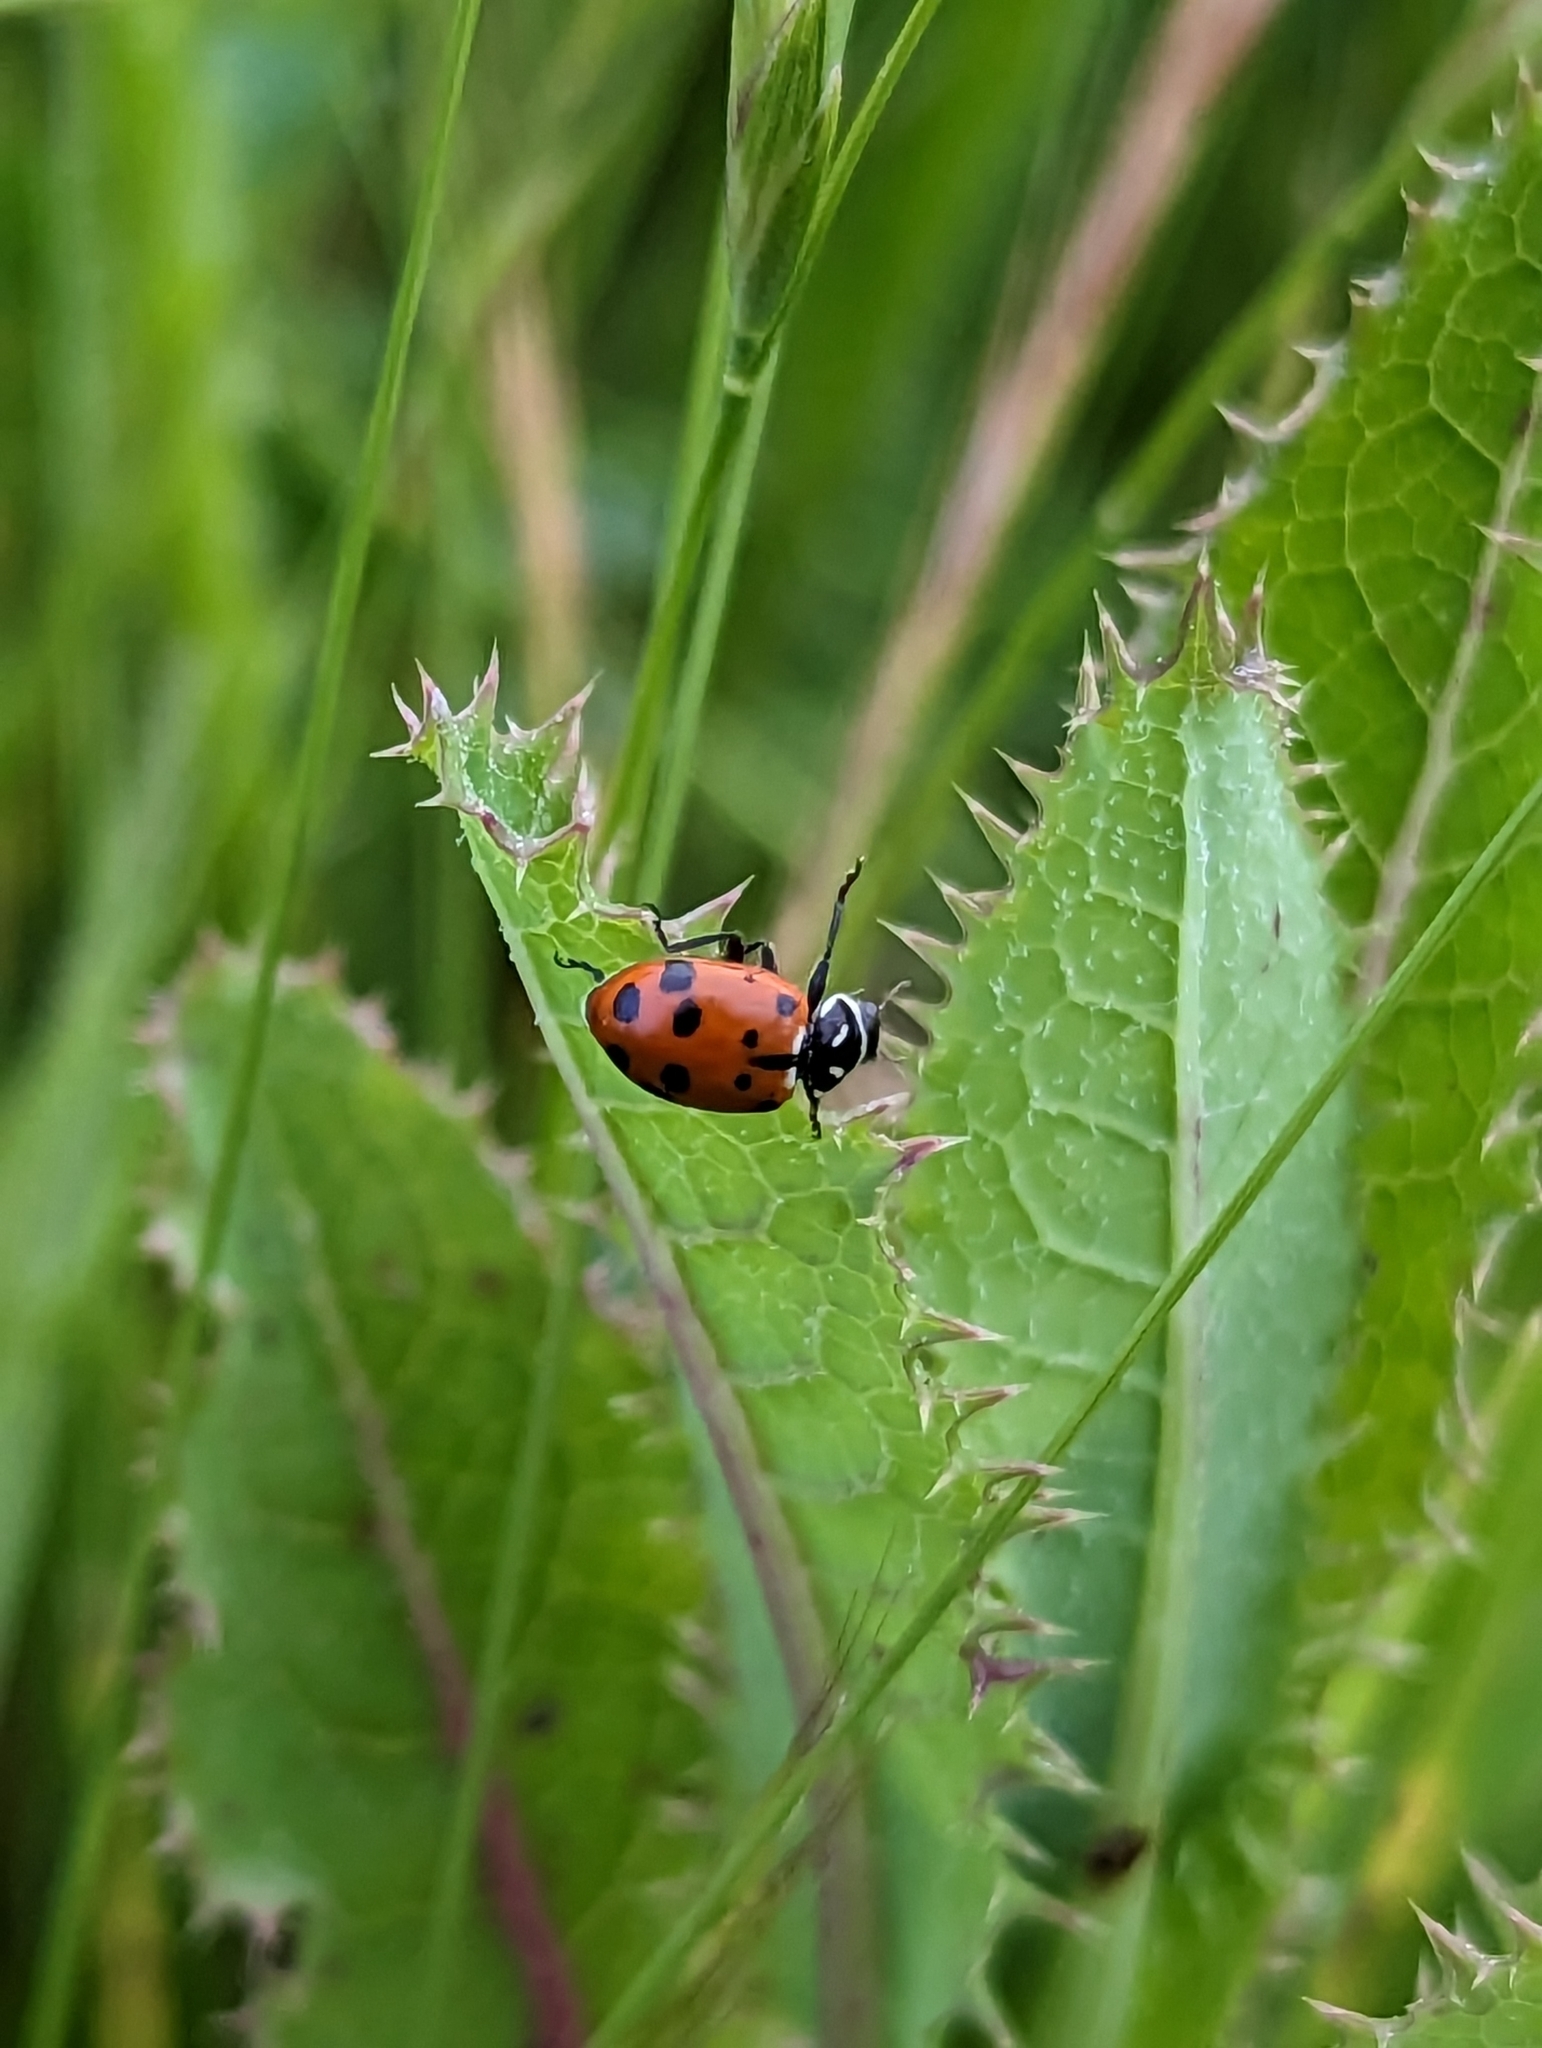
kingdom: Animalia
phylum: Arthropoda
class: Insecta
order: Coleoptera
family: Coccinellidae
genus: Hippodamia
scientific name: Hippodamia convergens
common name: Convergent lady beetle
